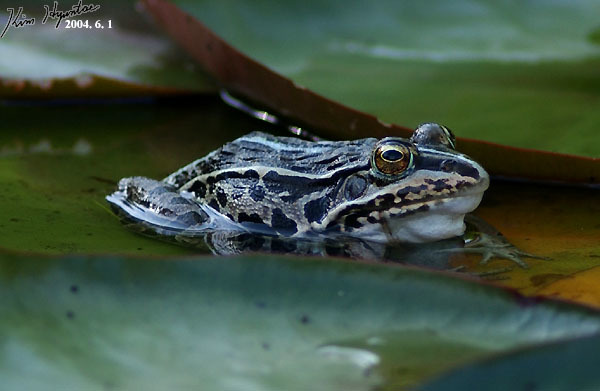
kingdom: Animalia
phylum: Chordata
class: Amphibia
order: Anura
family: Ranidae
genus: Pelophylax
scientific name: Pelophylax nigromaculatus
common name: Black-spotted pond frog
